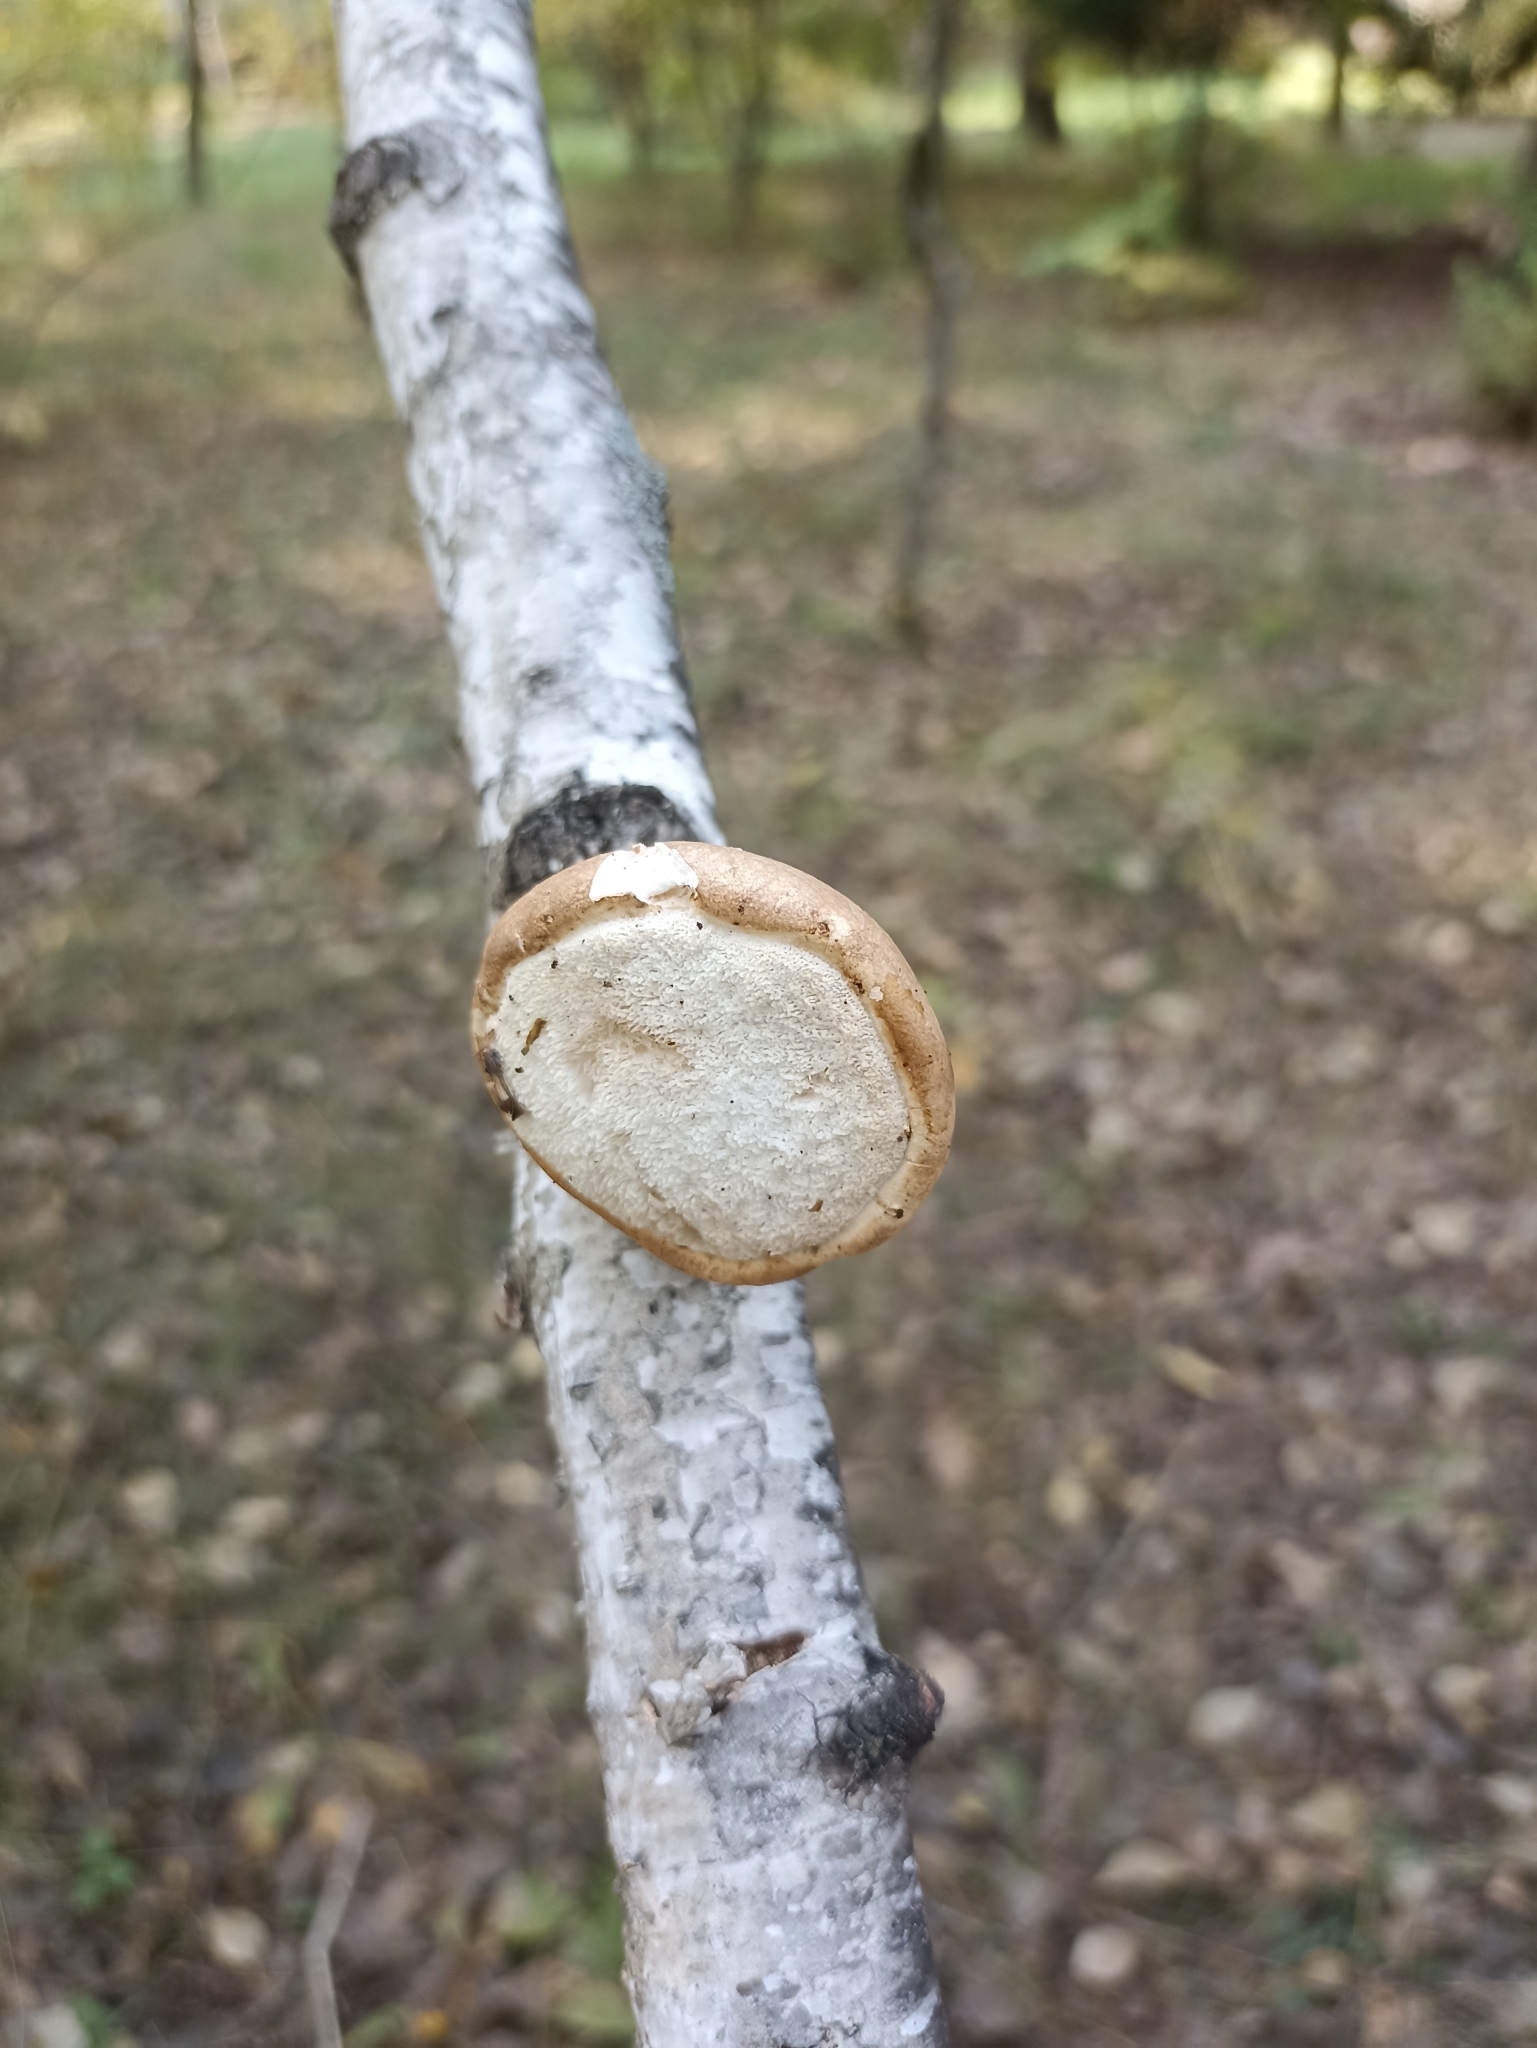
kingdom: Fungi
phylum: Basidiomycota
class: Agaricomycetes
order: Polyporales
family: Fomitopsidaceae
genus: Fomitopsis
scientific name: Fomitopsis betulina
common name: Birch polypore
